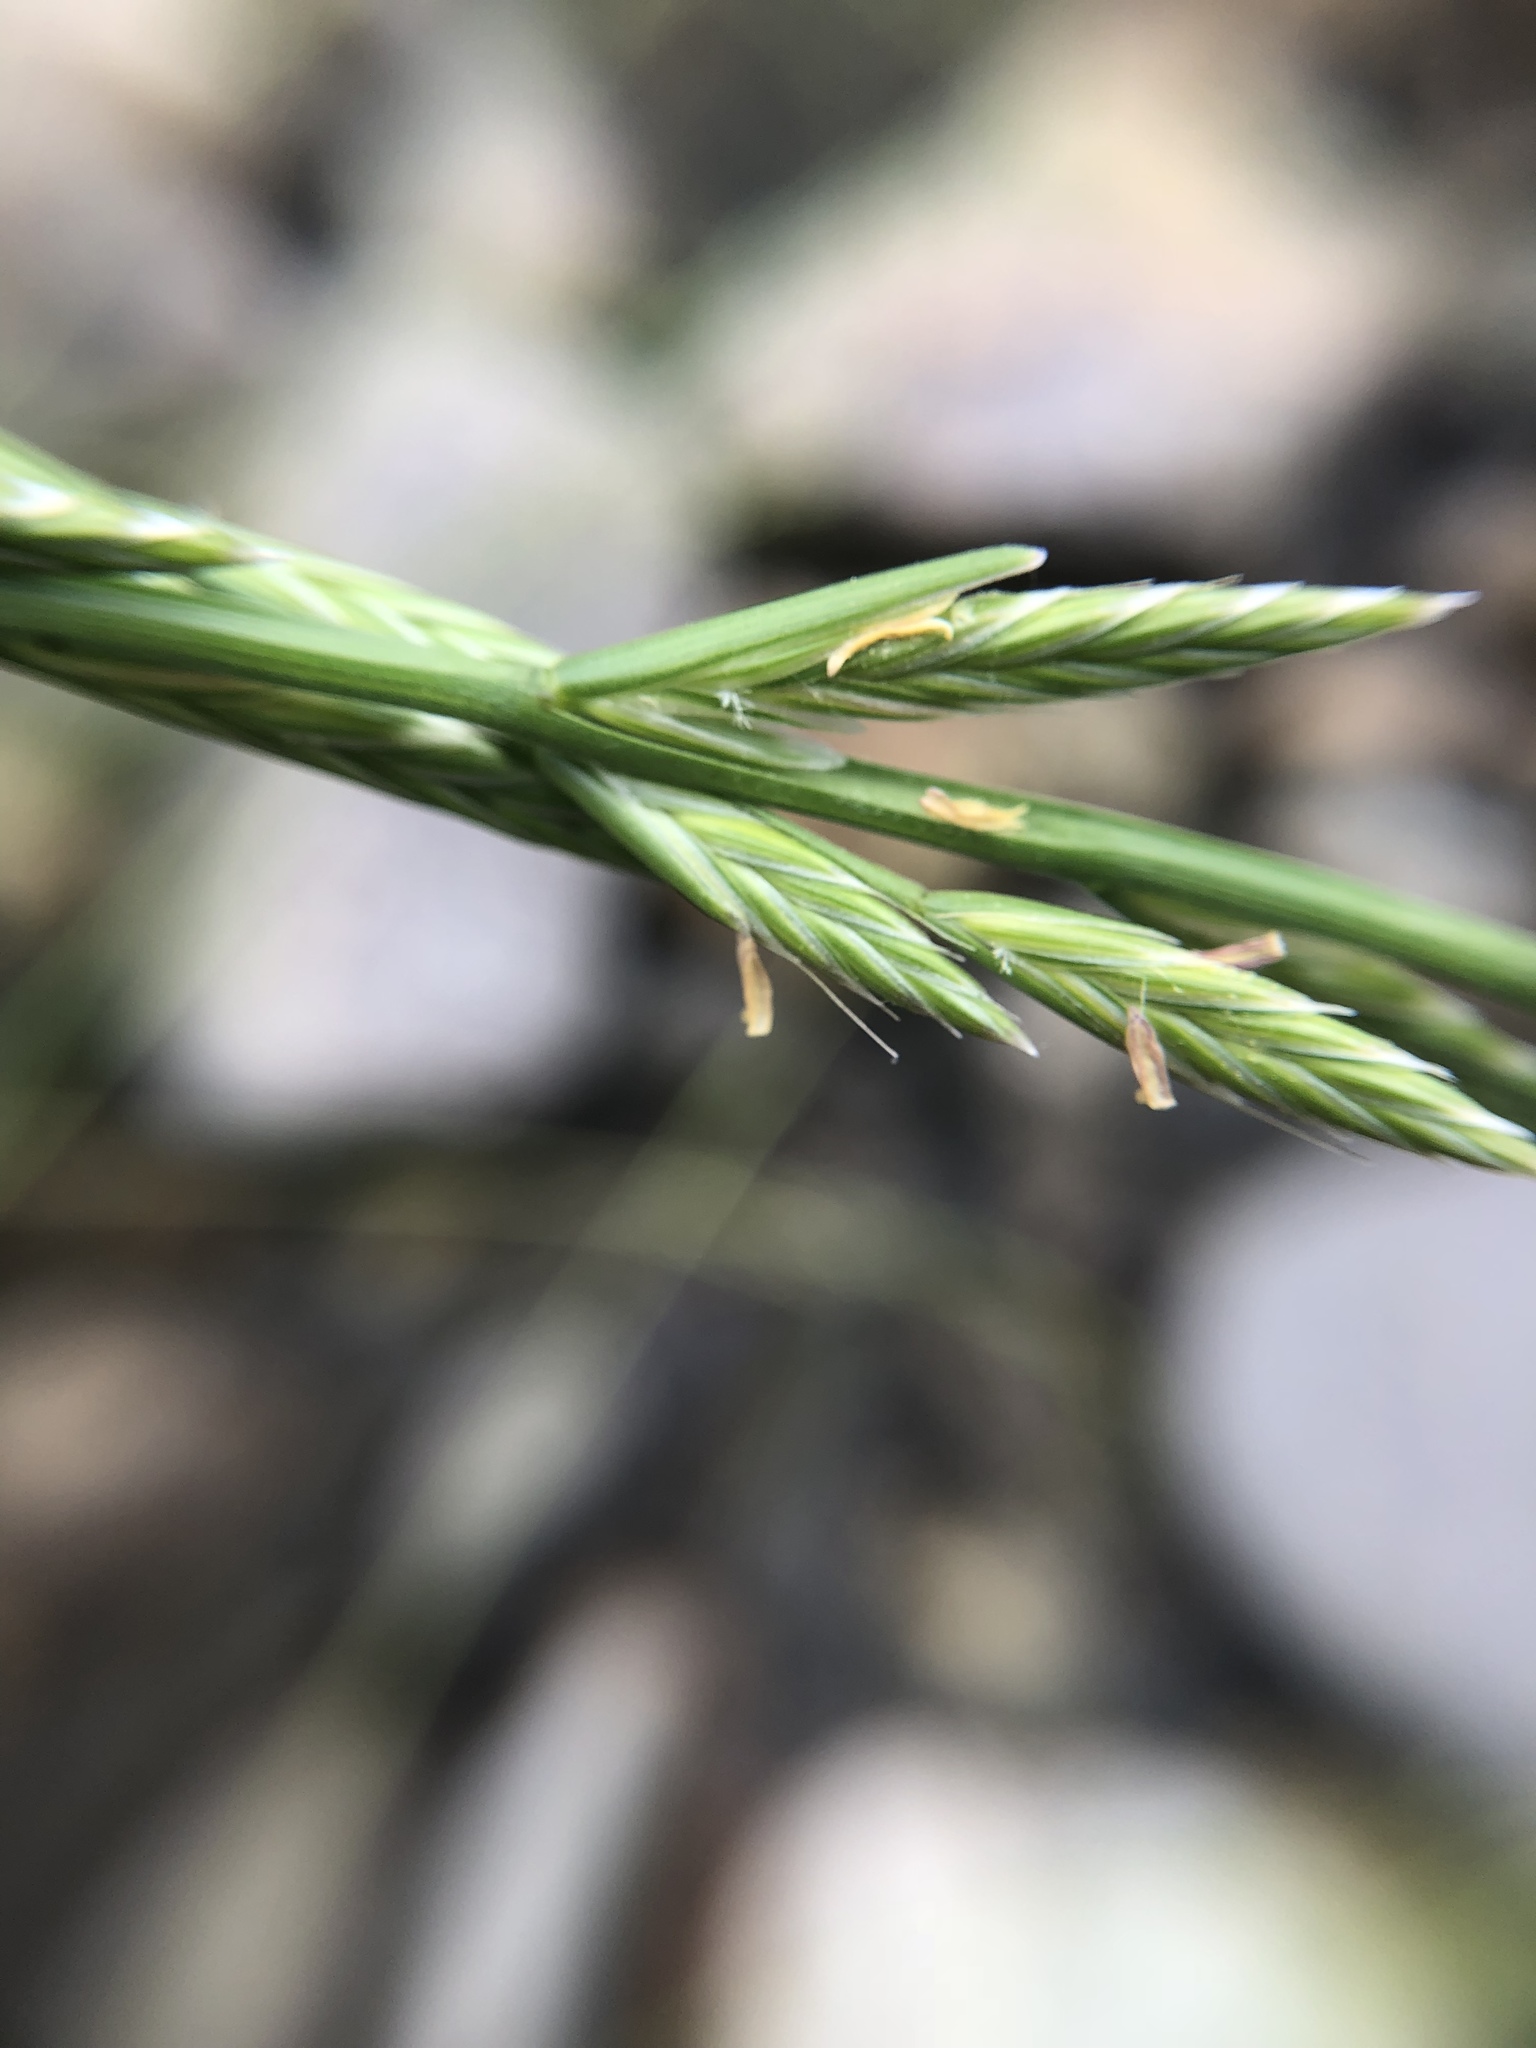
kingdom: Plantae
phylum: Tracheophyta
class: Liliopsida
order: Poales
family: Poaceae
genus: Lolium
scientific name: Lolium multiflorum
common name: Annual ryegrass
